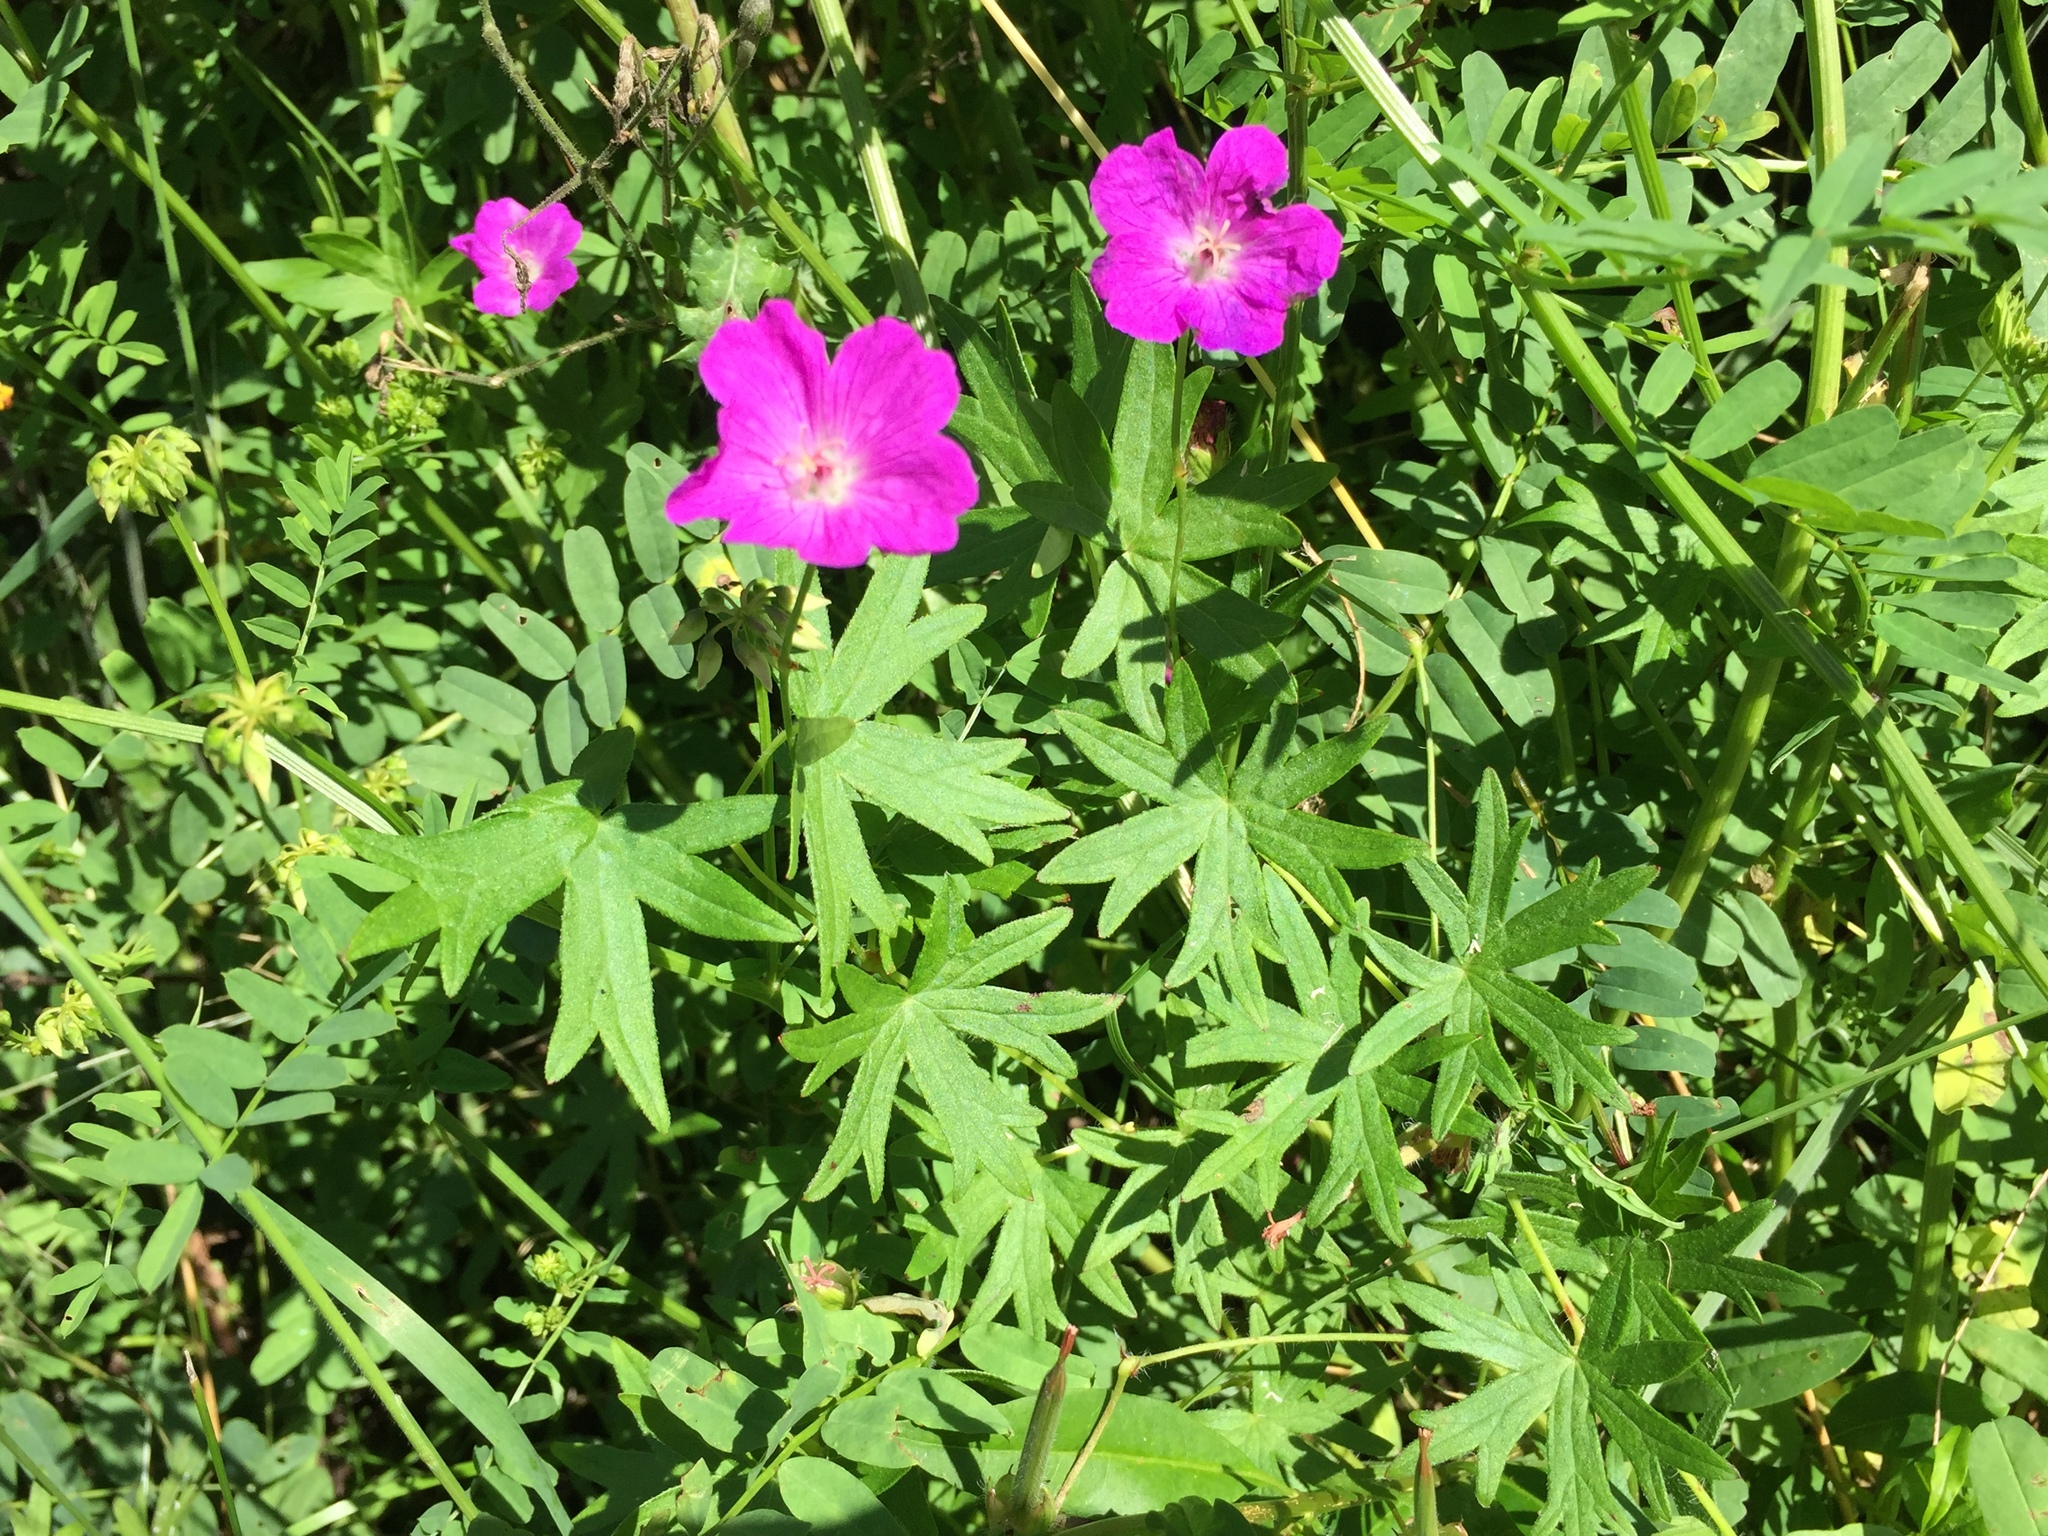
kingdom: Plantae
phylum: Tracheophyta
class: Magnoliopsida
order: Geraniales
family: Geraniaceae
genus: Geranium
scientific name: Geranium sanguineum
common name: Bloody crane's-bill
